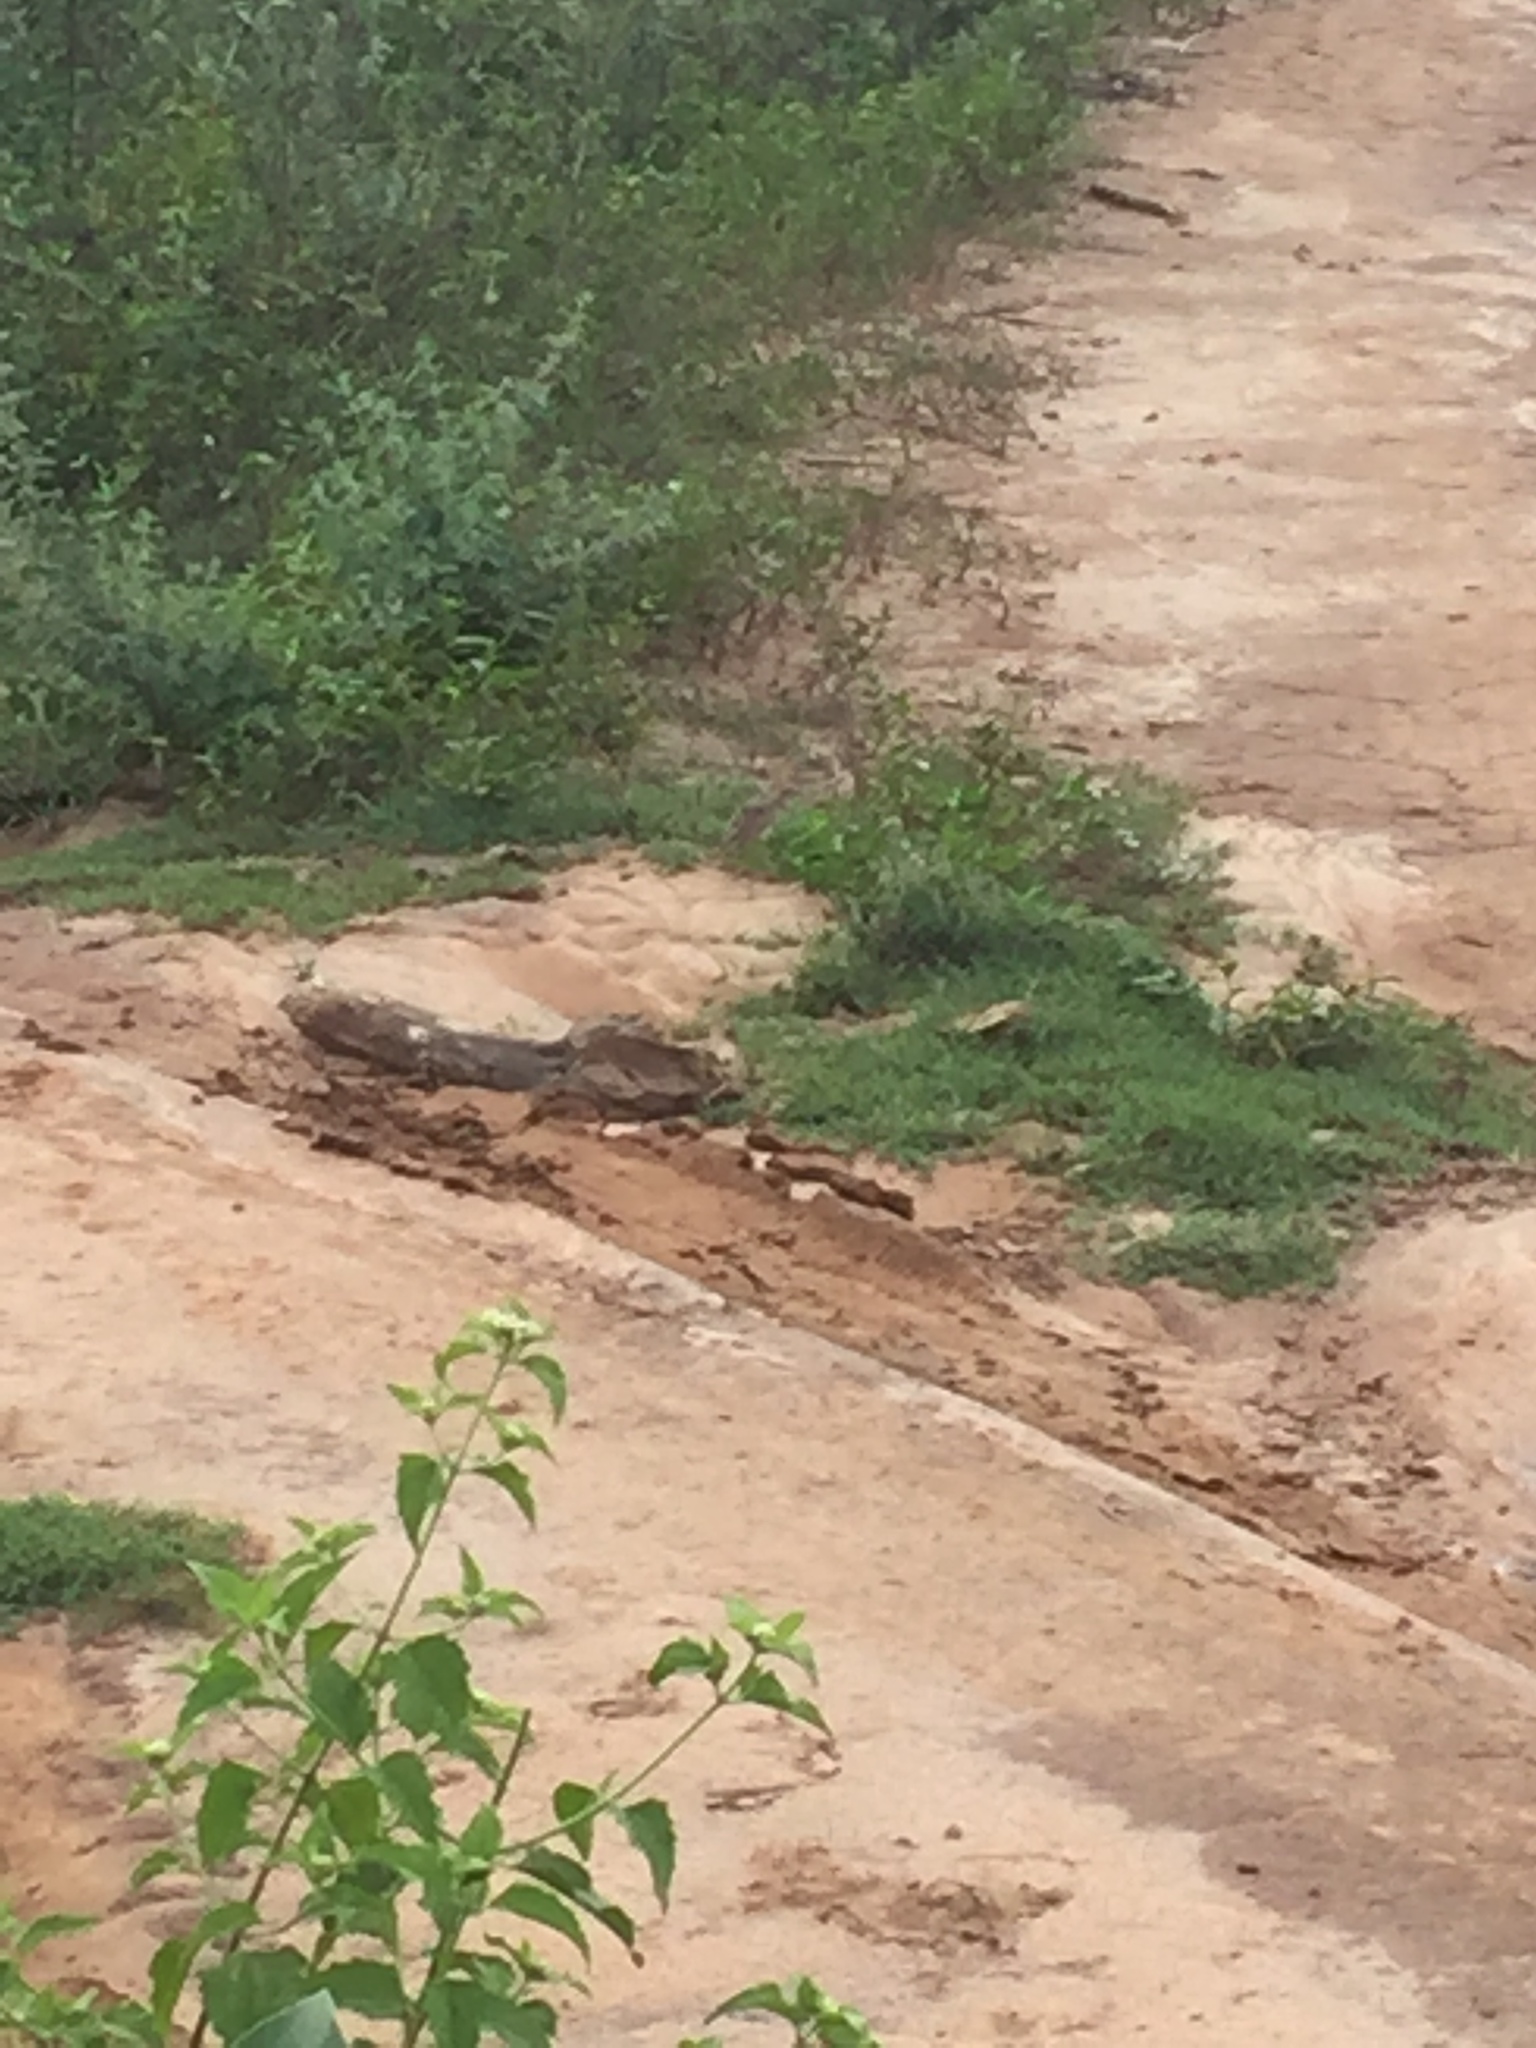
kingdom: Animalia
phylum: Chordata
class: Aves
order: Passeriformes
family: Alaudidae
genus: Mirafra
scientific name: Mirafra affinis
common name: Jerdon's bushlark
